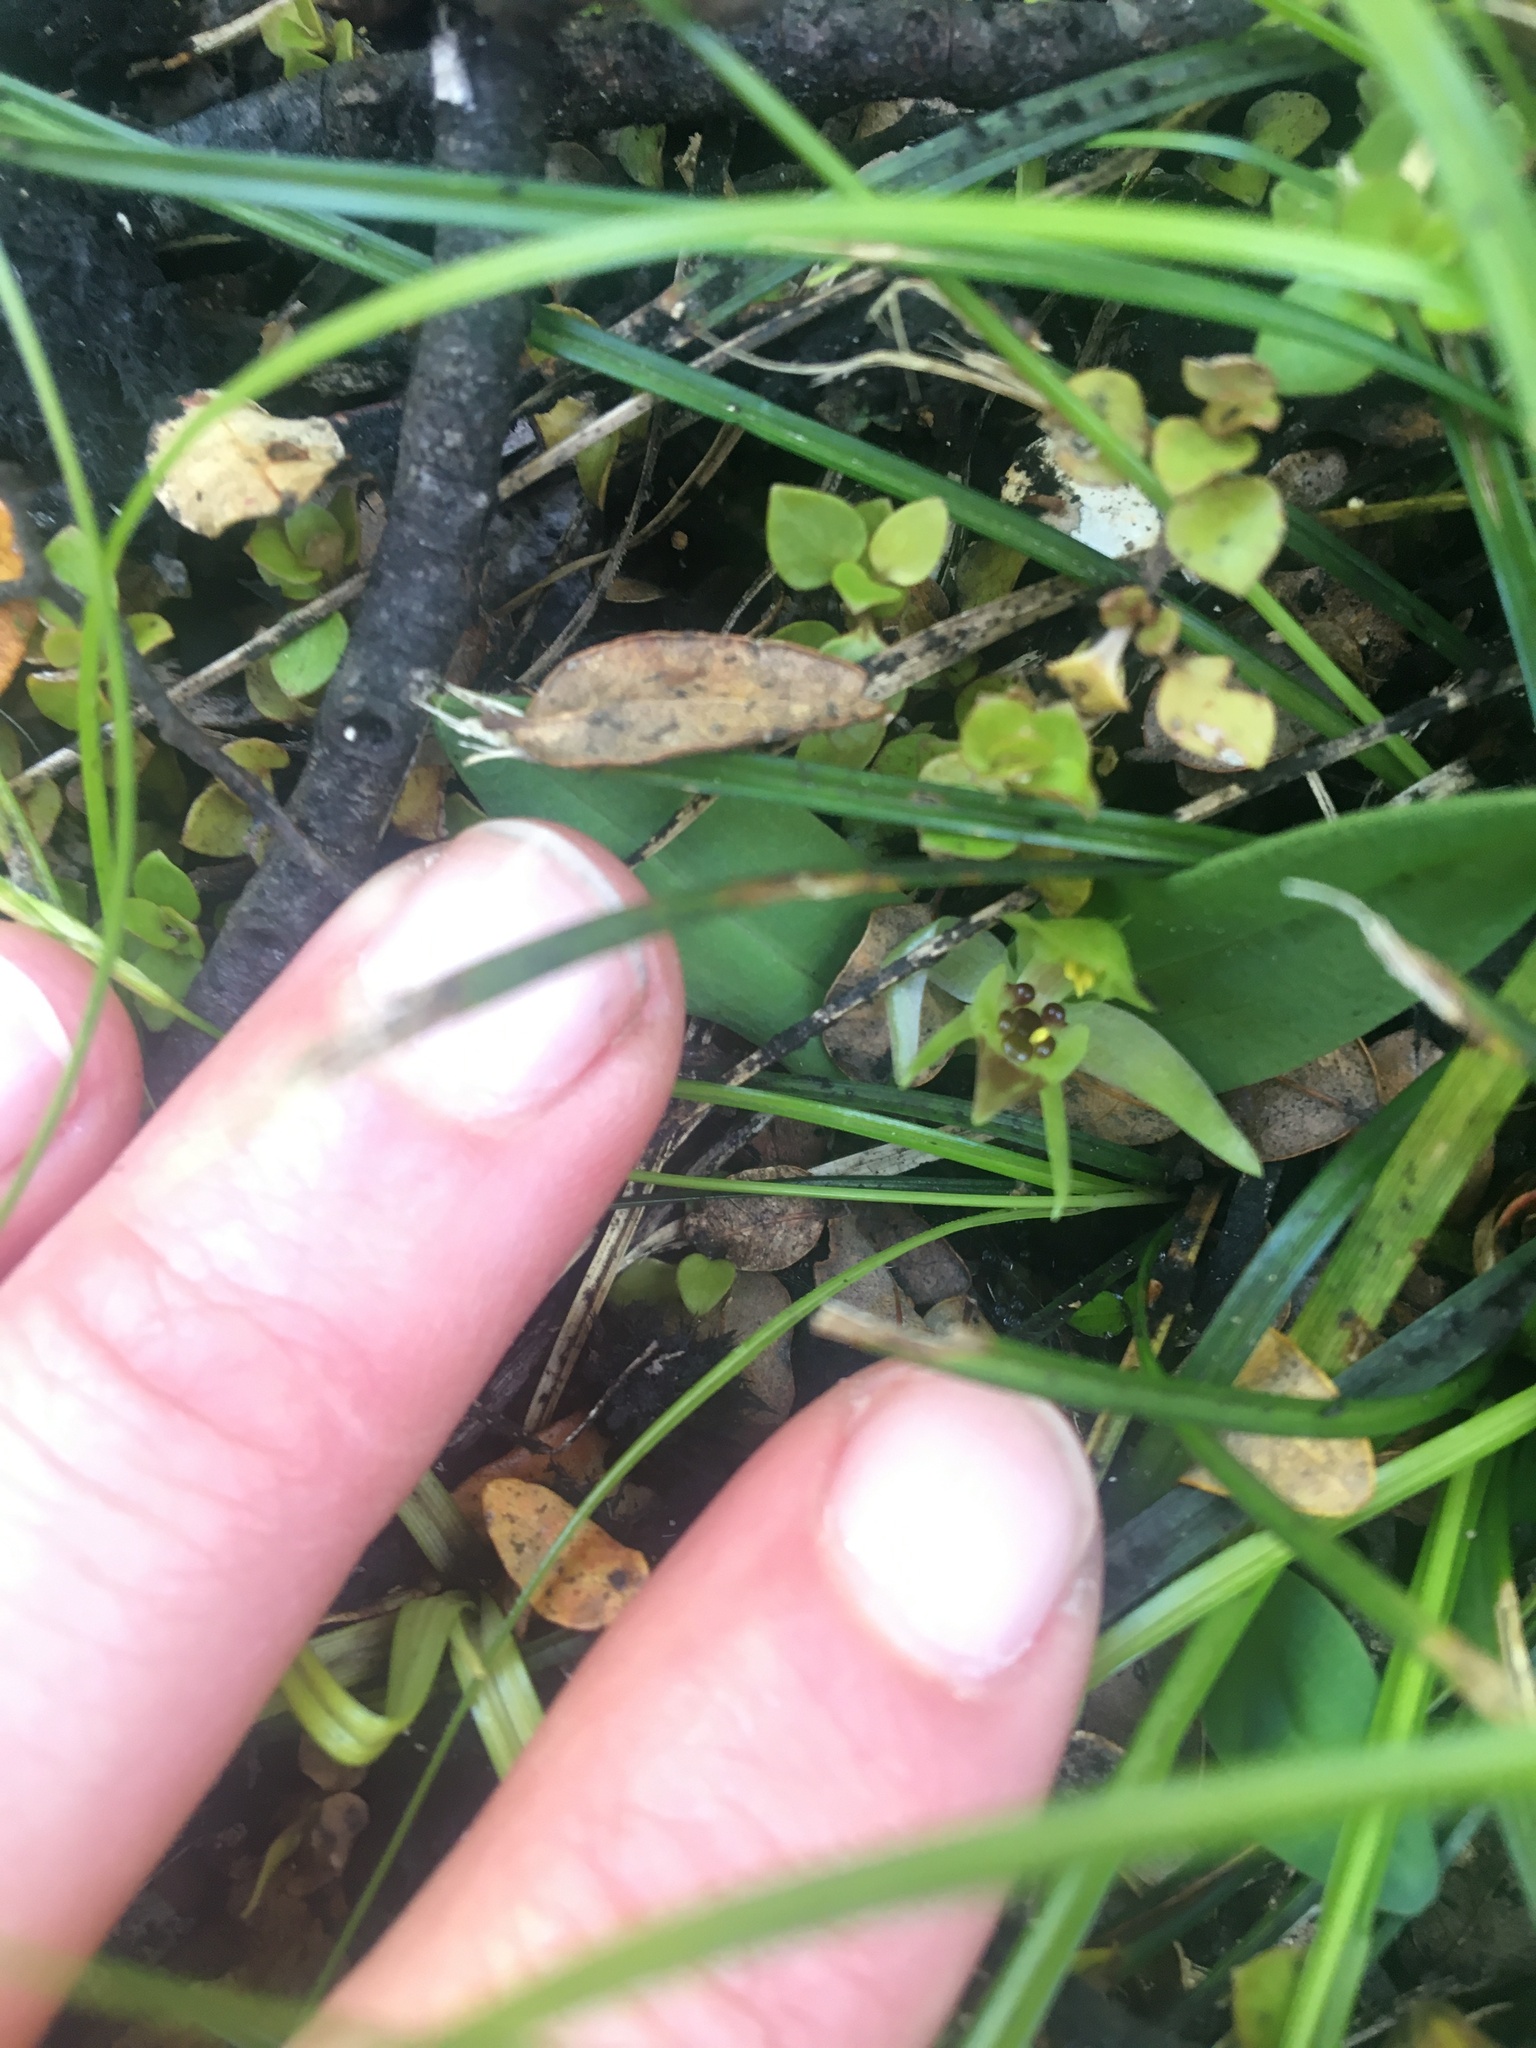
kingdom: Plantae
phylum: Tracheophyta
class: Liliopsida
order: Asparagales
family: Orchidaceae
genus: Chiloglottis
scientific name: Chiloglottis cornuta
